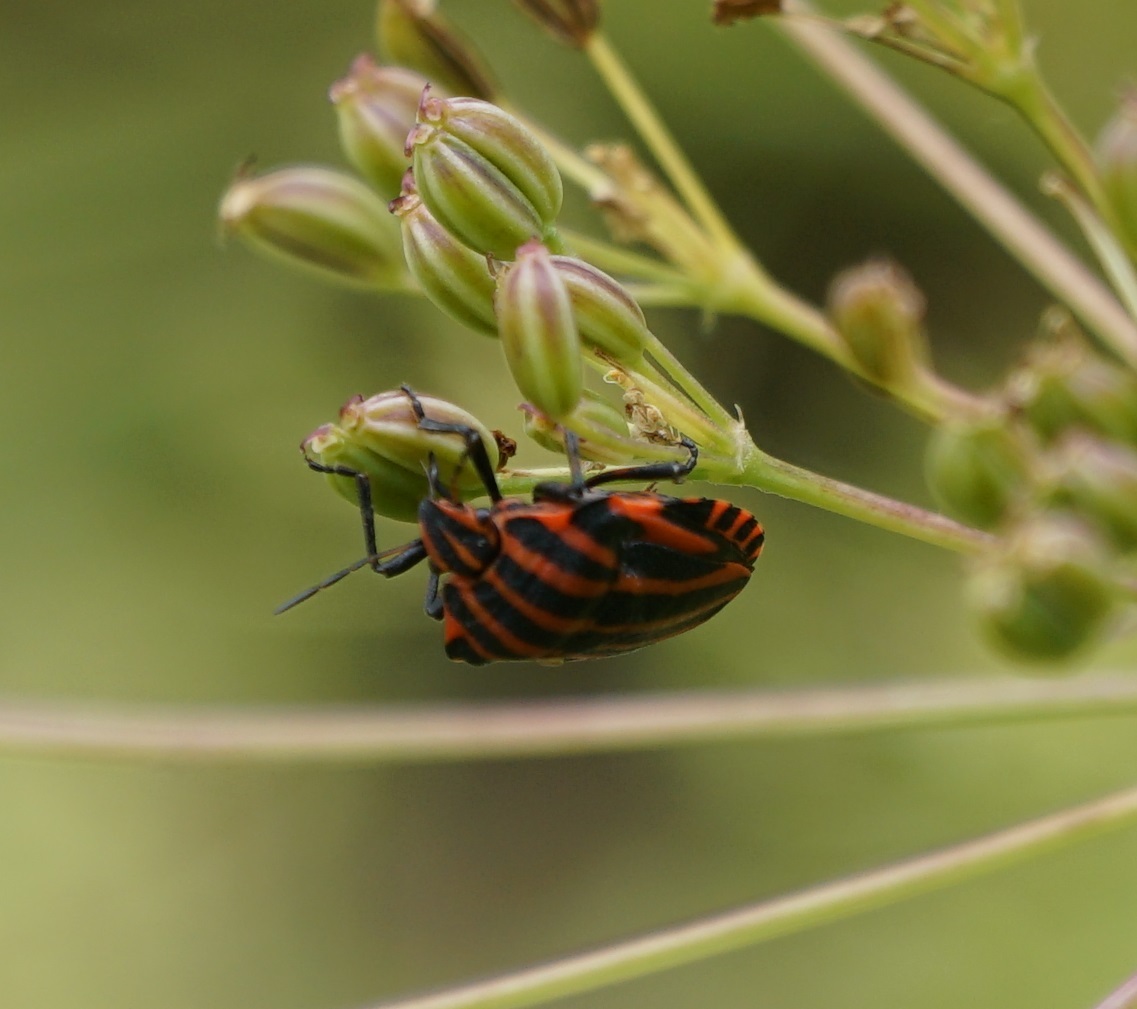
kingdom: Animalia
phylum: Arthropoda
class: Insecta
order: Hemiptera
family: Pentatomidae
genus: Graphosoma
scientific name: Graphosoma italicum
